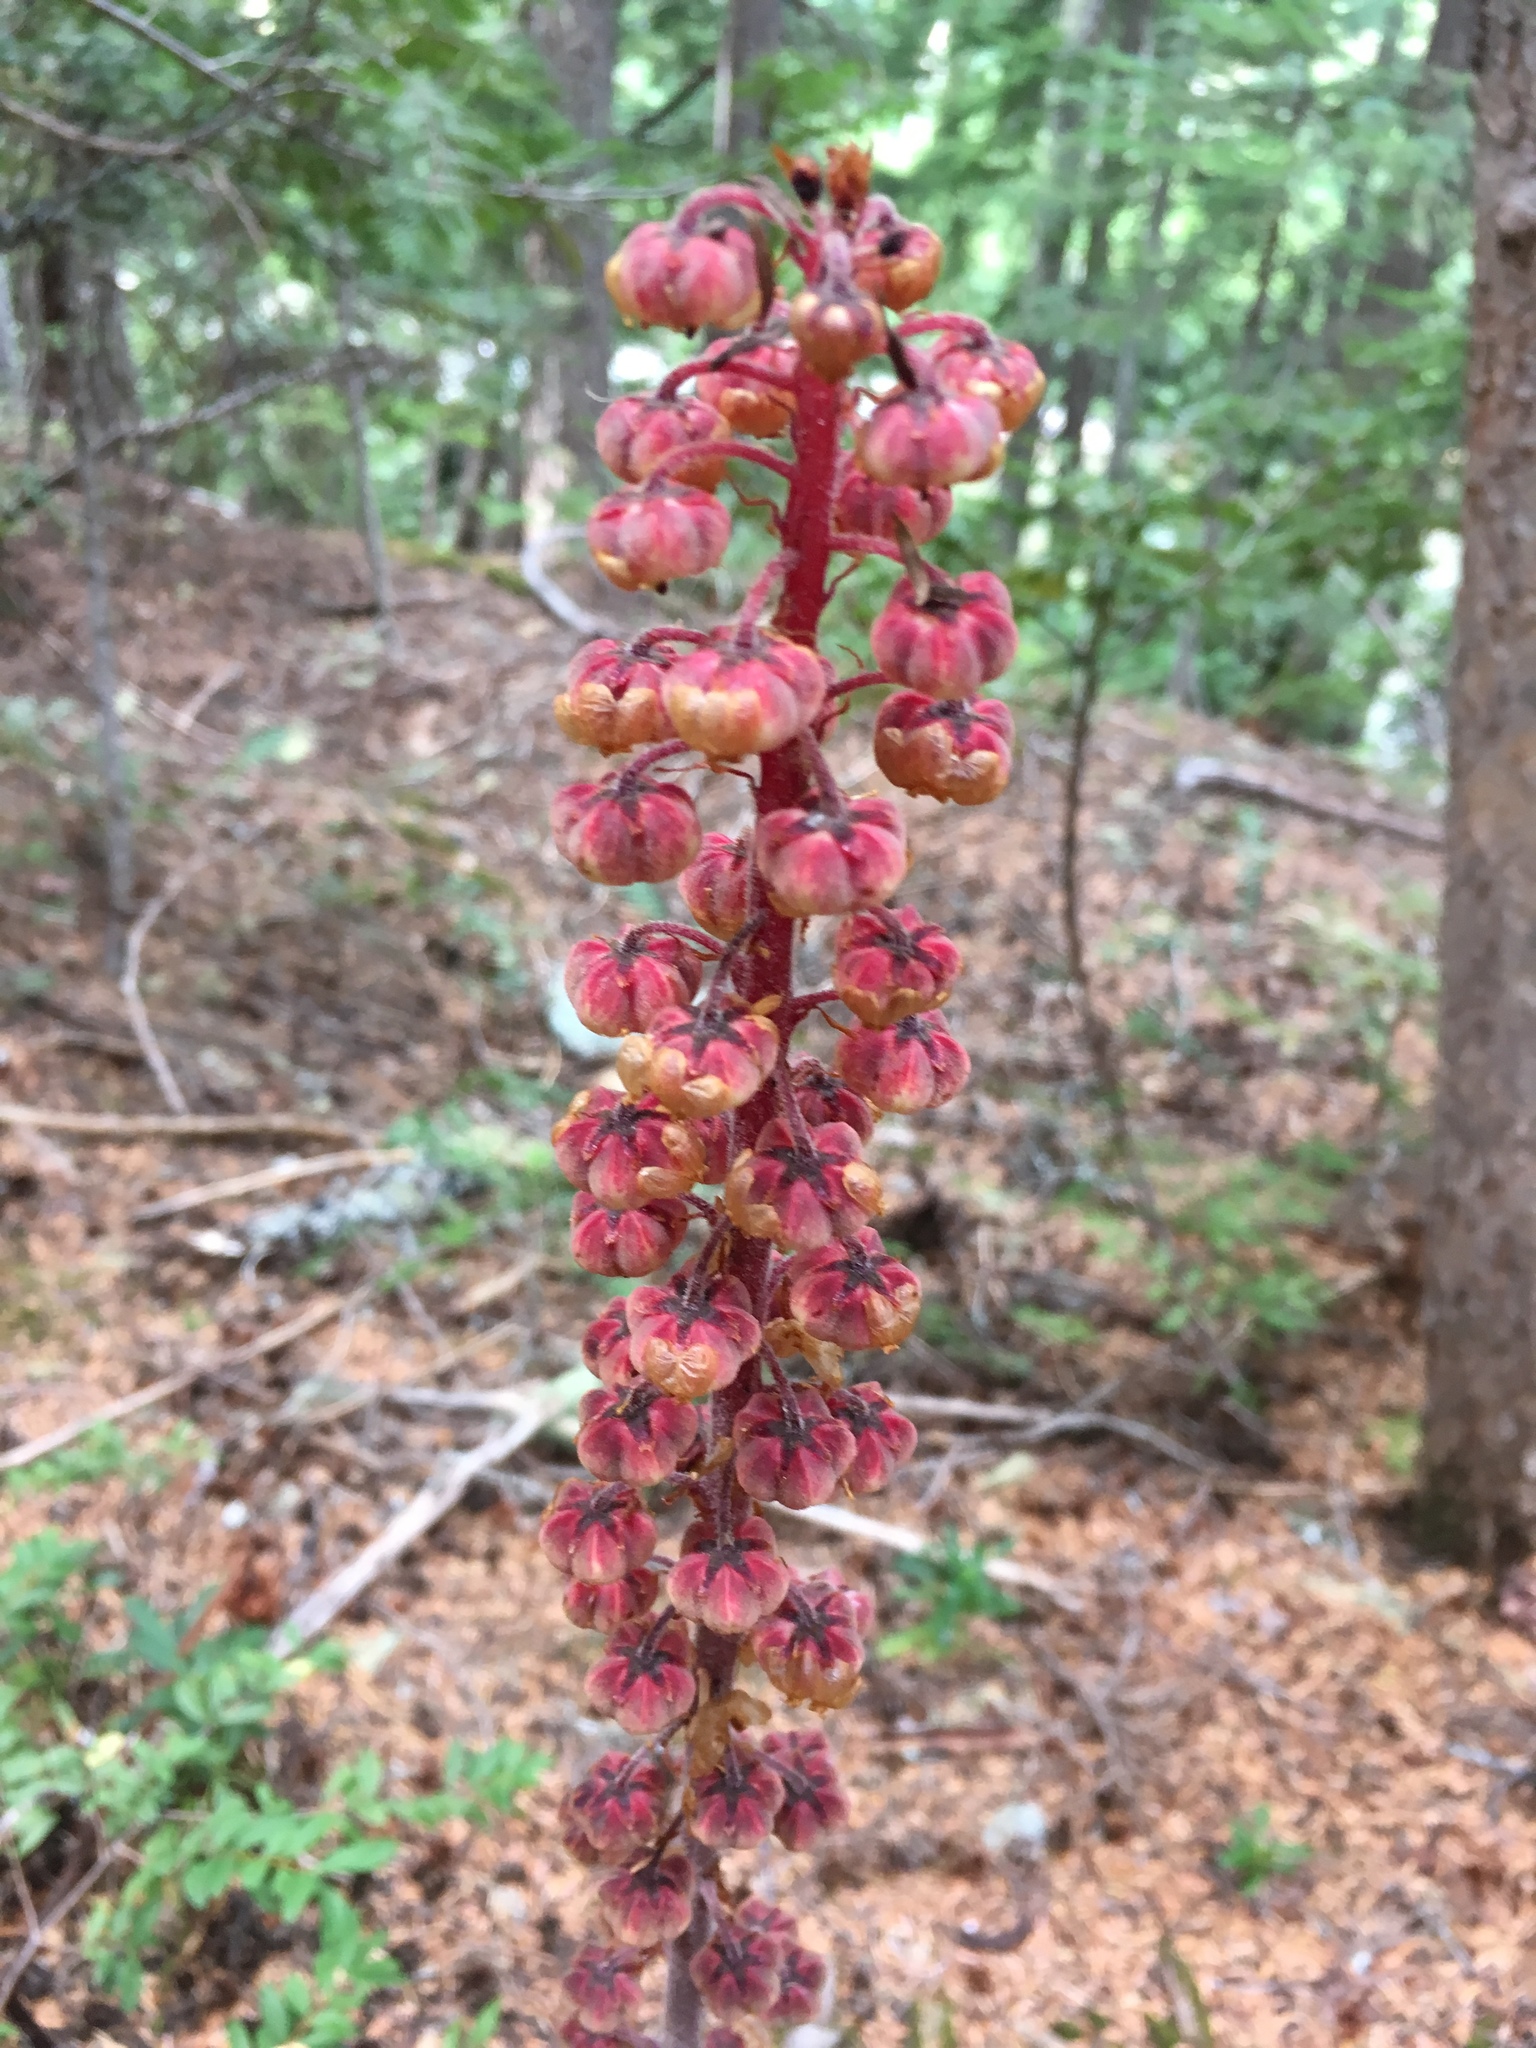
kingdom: Plantae
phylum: Tracheophyta
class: Magnoliopsida
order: Ericales
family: Ericaceae
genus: Pterospora
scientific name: Pterospora andromedea
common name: Giant bird's-nest
